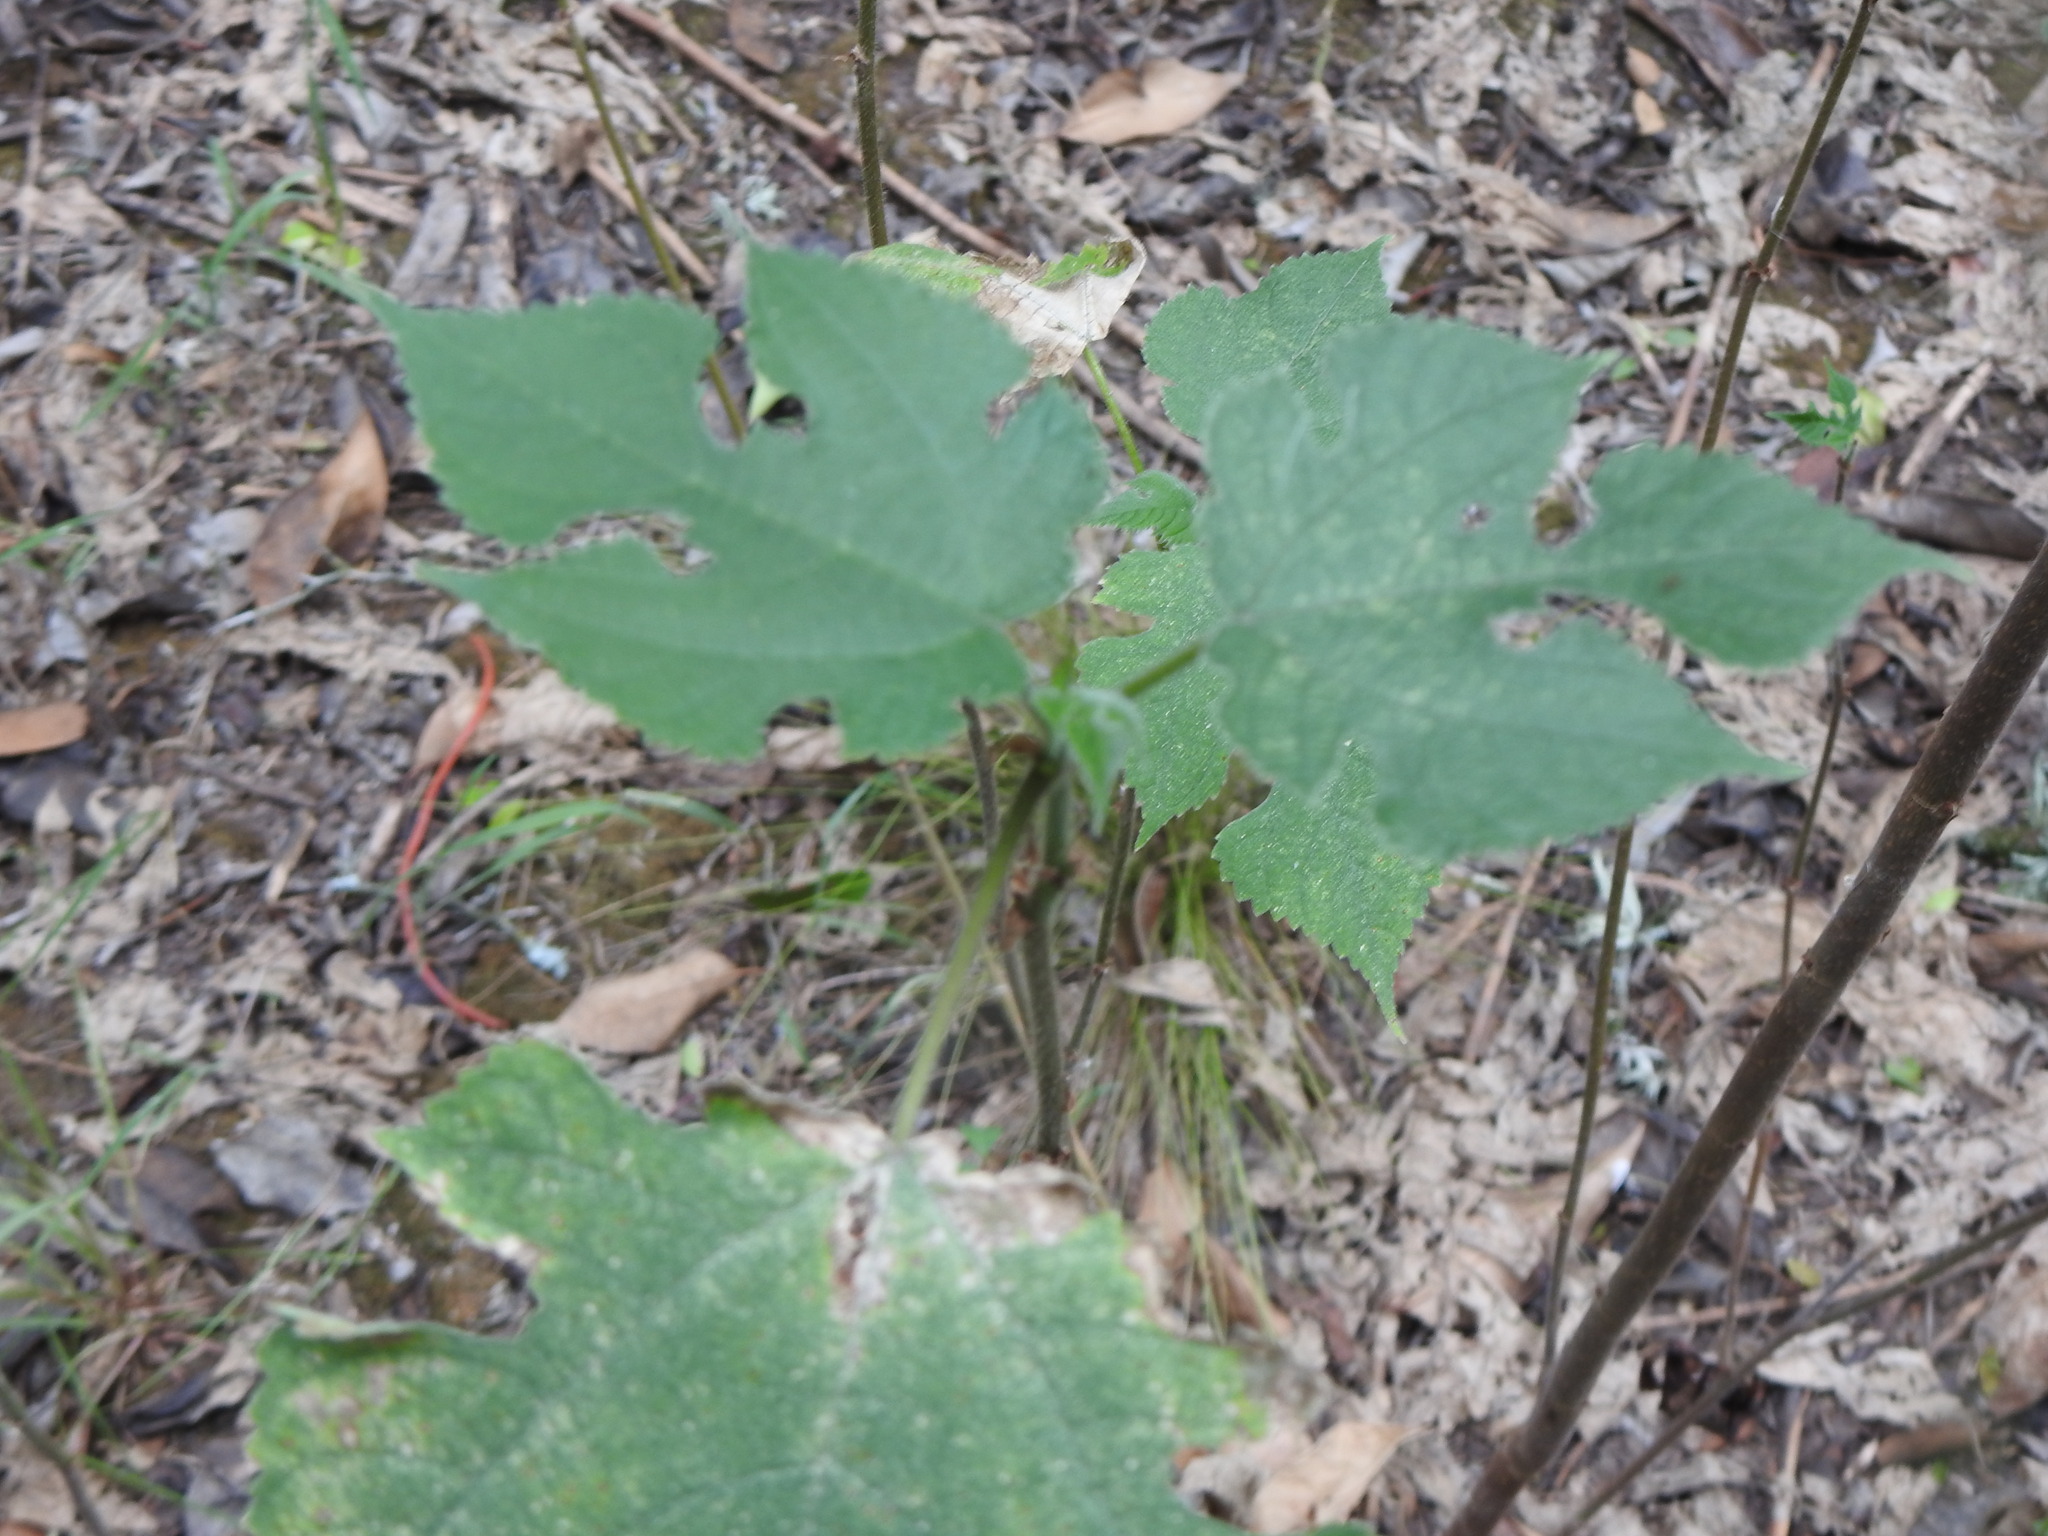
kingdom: Plantae
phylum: Tracheophyta
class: Magnoliopsida
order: Rosales
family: Moraceae
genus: Broussonetia
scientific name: Broussonetia papyrifera
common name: Paper mulberry
